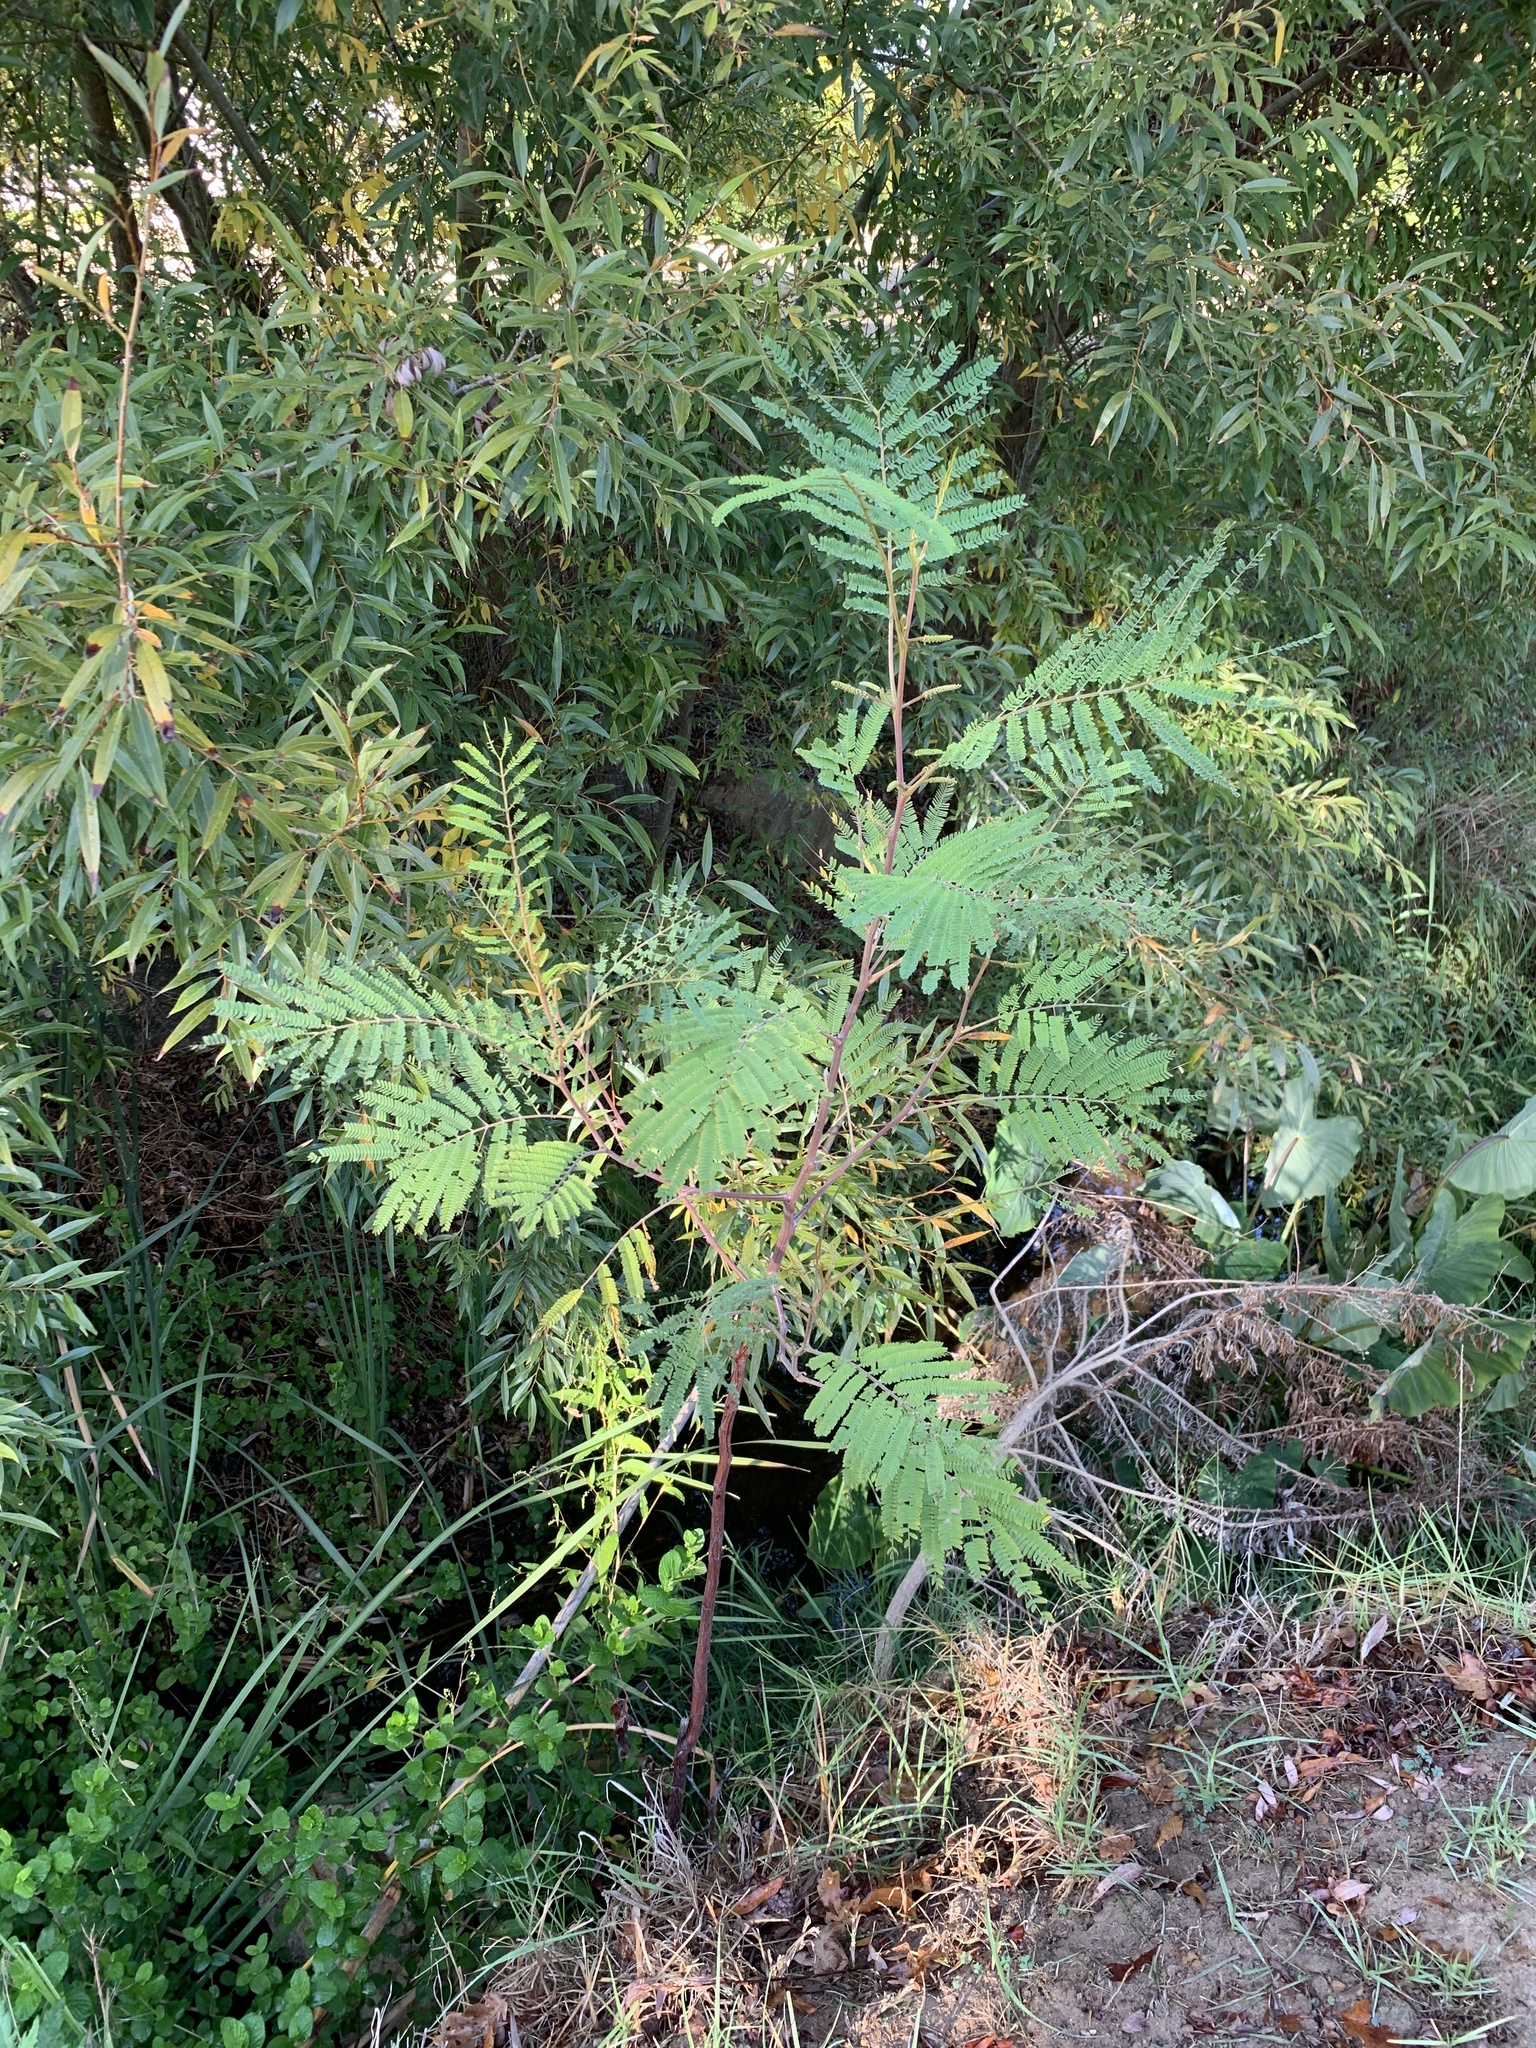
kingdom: Plantae
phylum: Tracheophyta
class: Magnoliopsida
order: Fabales
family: Fabaceae
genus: Paraserianthes
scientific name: Paraserianthes lophantha
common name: Plume albizia
